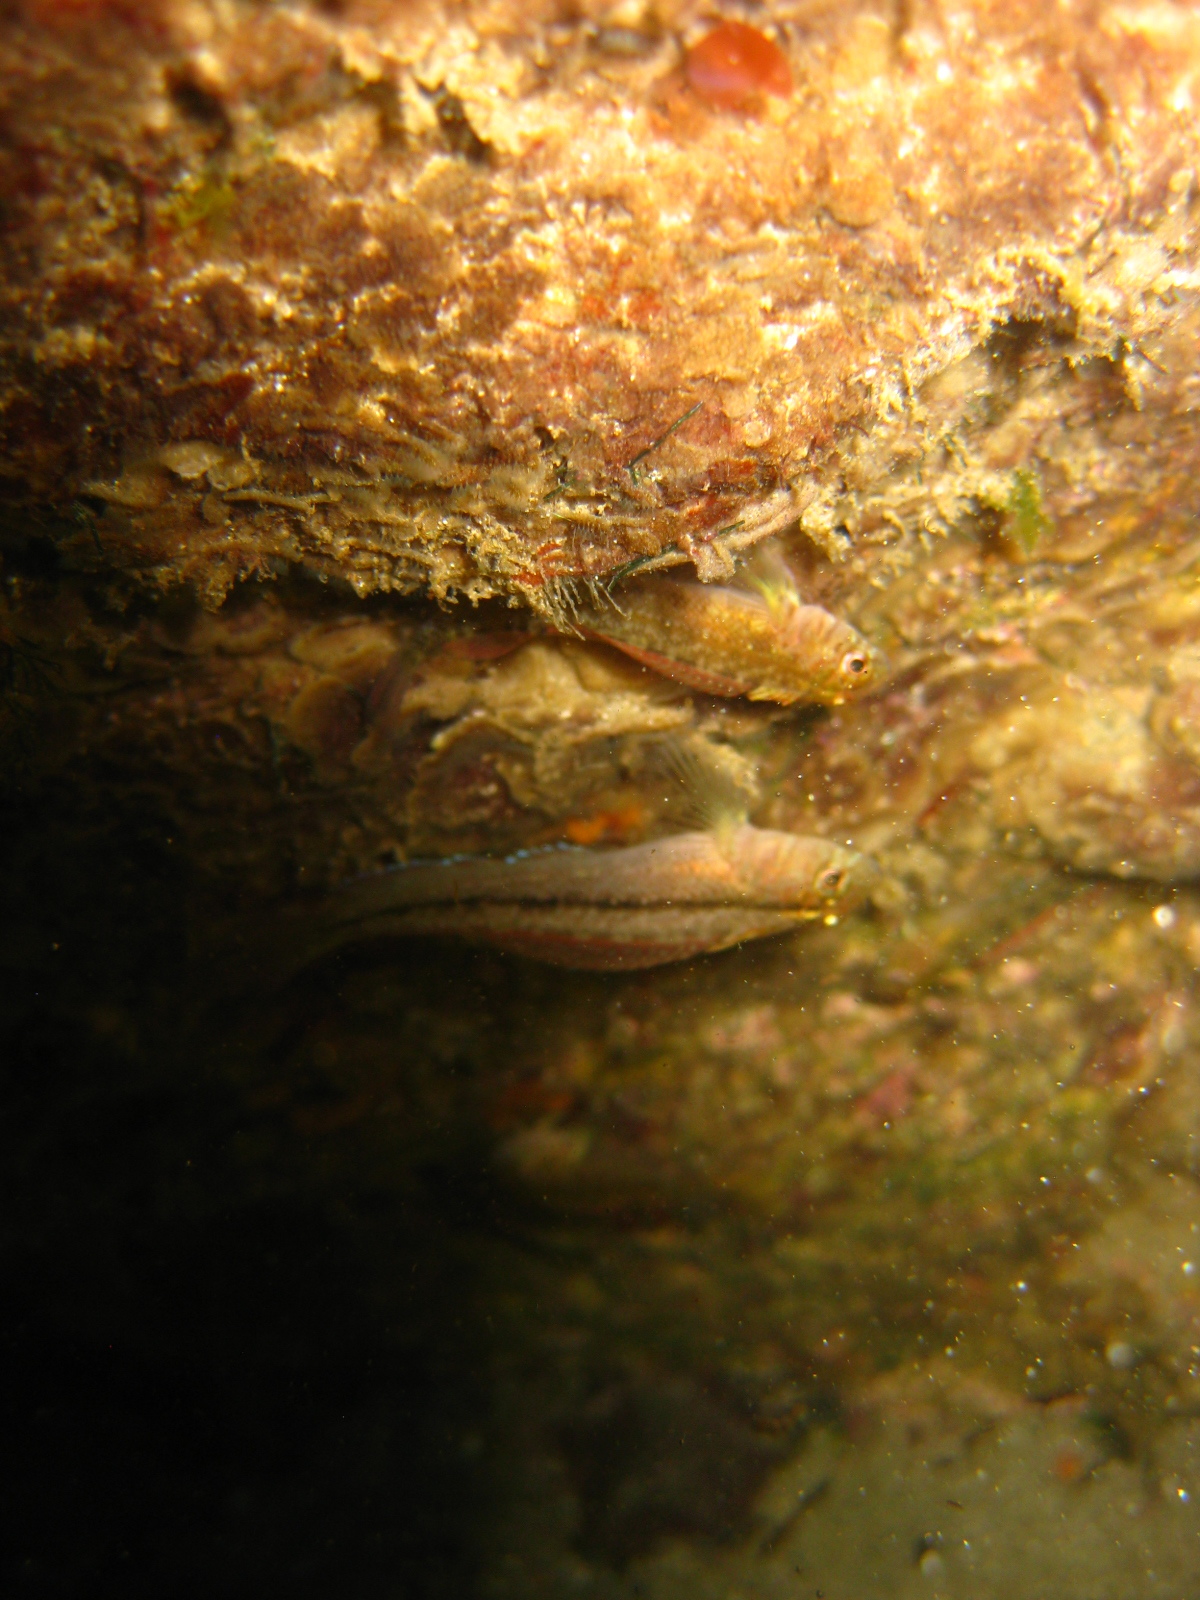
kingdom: Animalia
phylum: Chordata
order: Perciformes
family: Tripterygiidae
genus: Forsterygion
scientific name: Forsterygion lapillum
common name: Common triplefin
